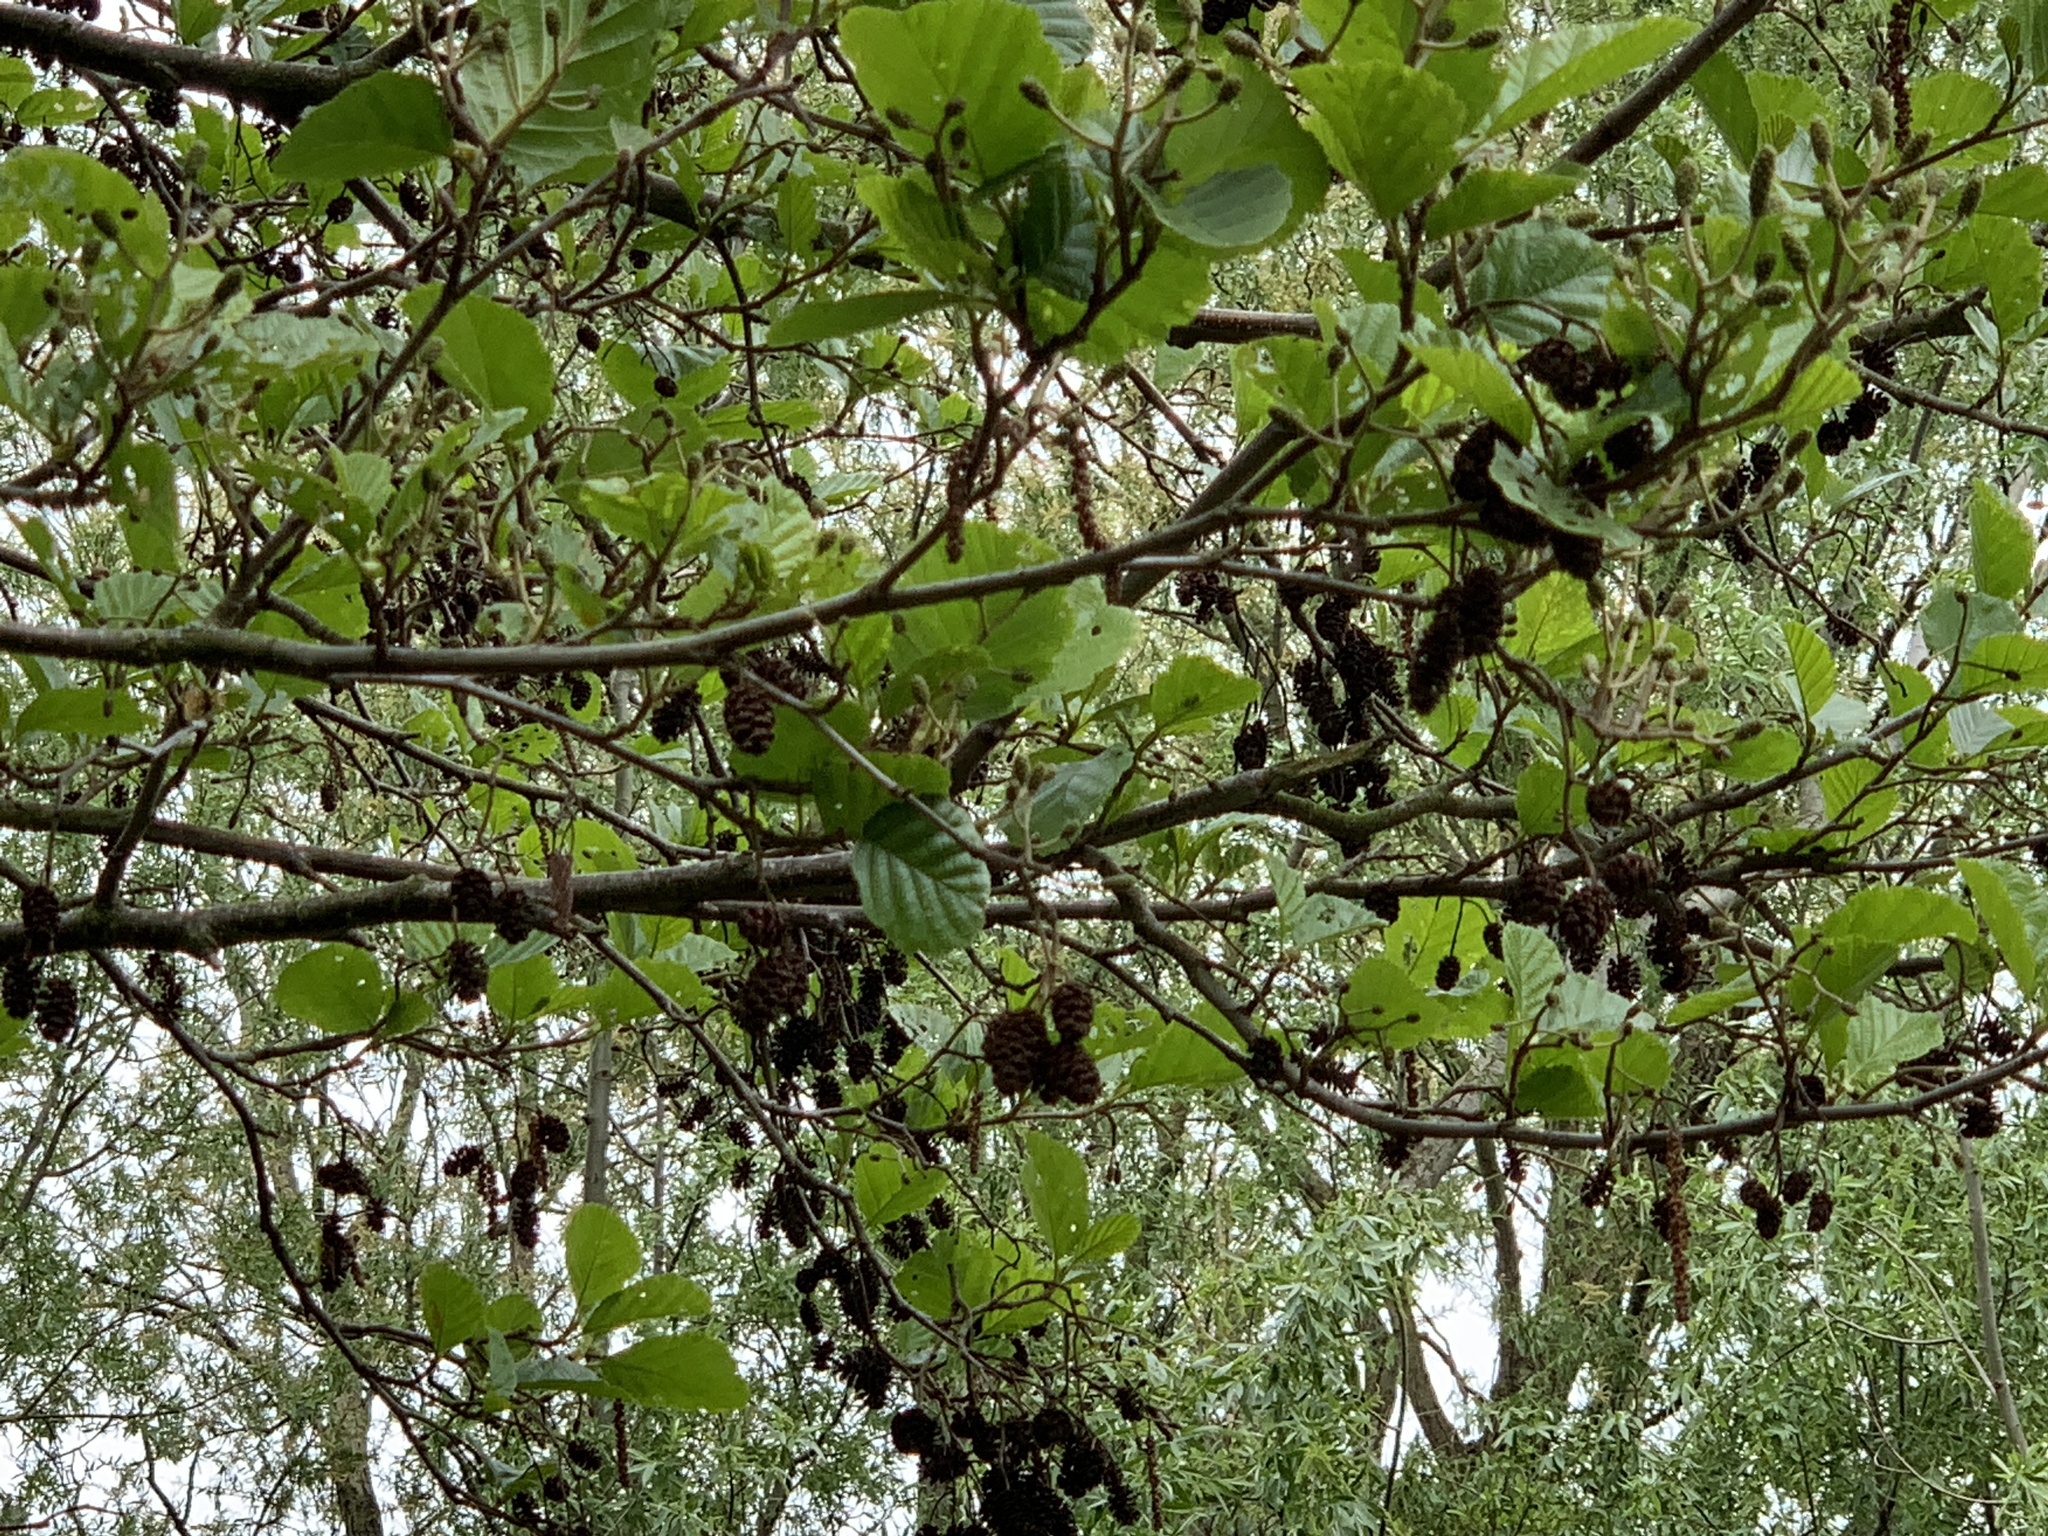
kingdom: Plantae
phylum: Tracheophyta
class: Magnoliopsida
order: Fagales
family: Betulaceae
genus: Alnus
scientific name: Alnus glutinosa
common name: Black alder
